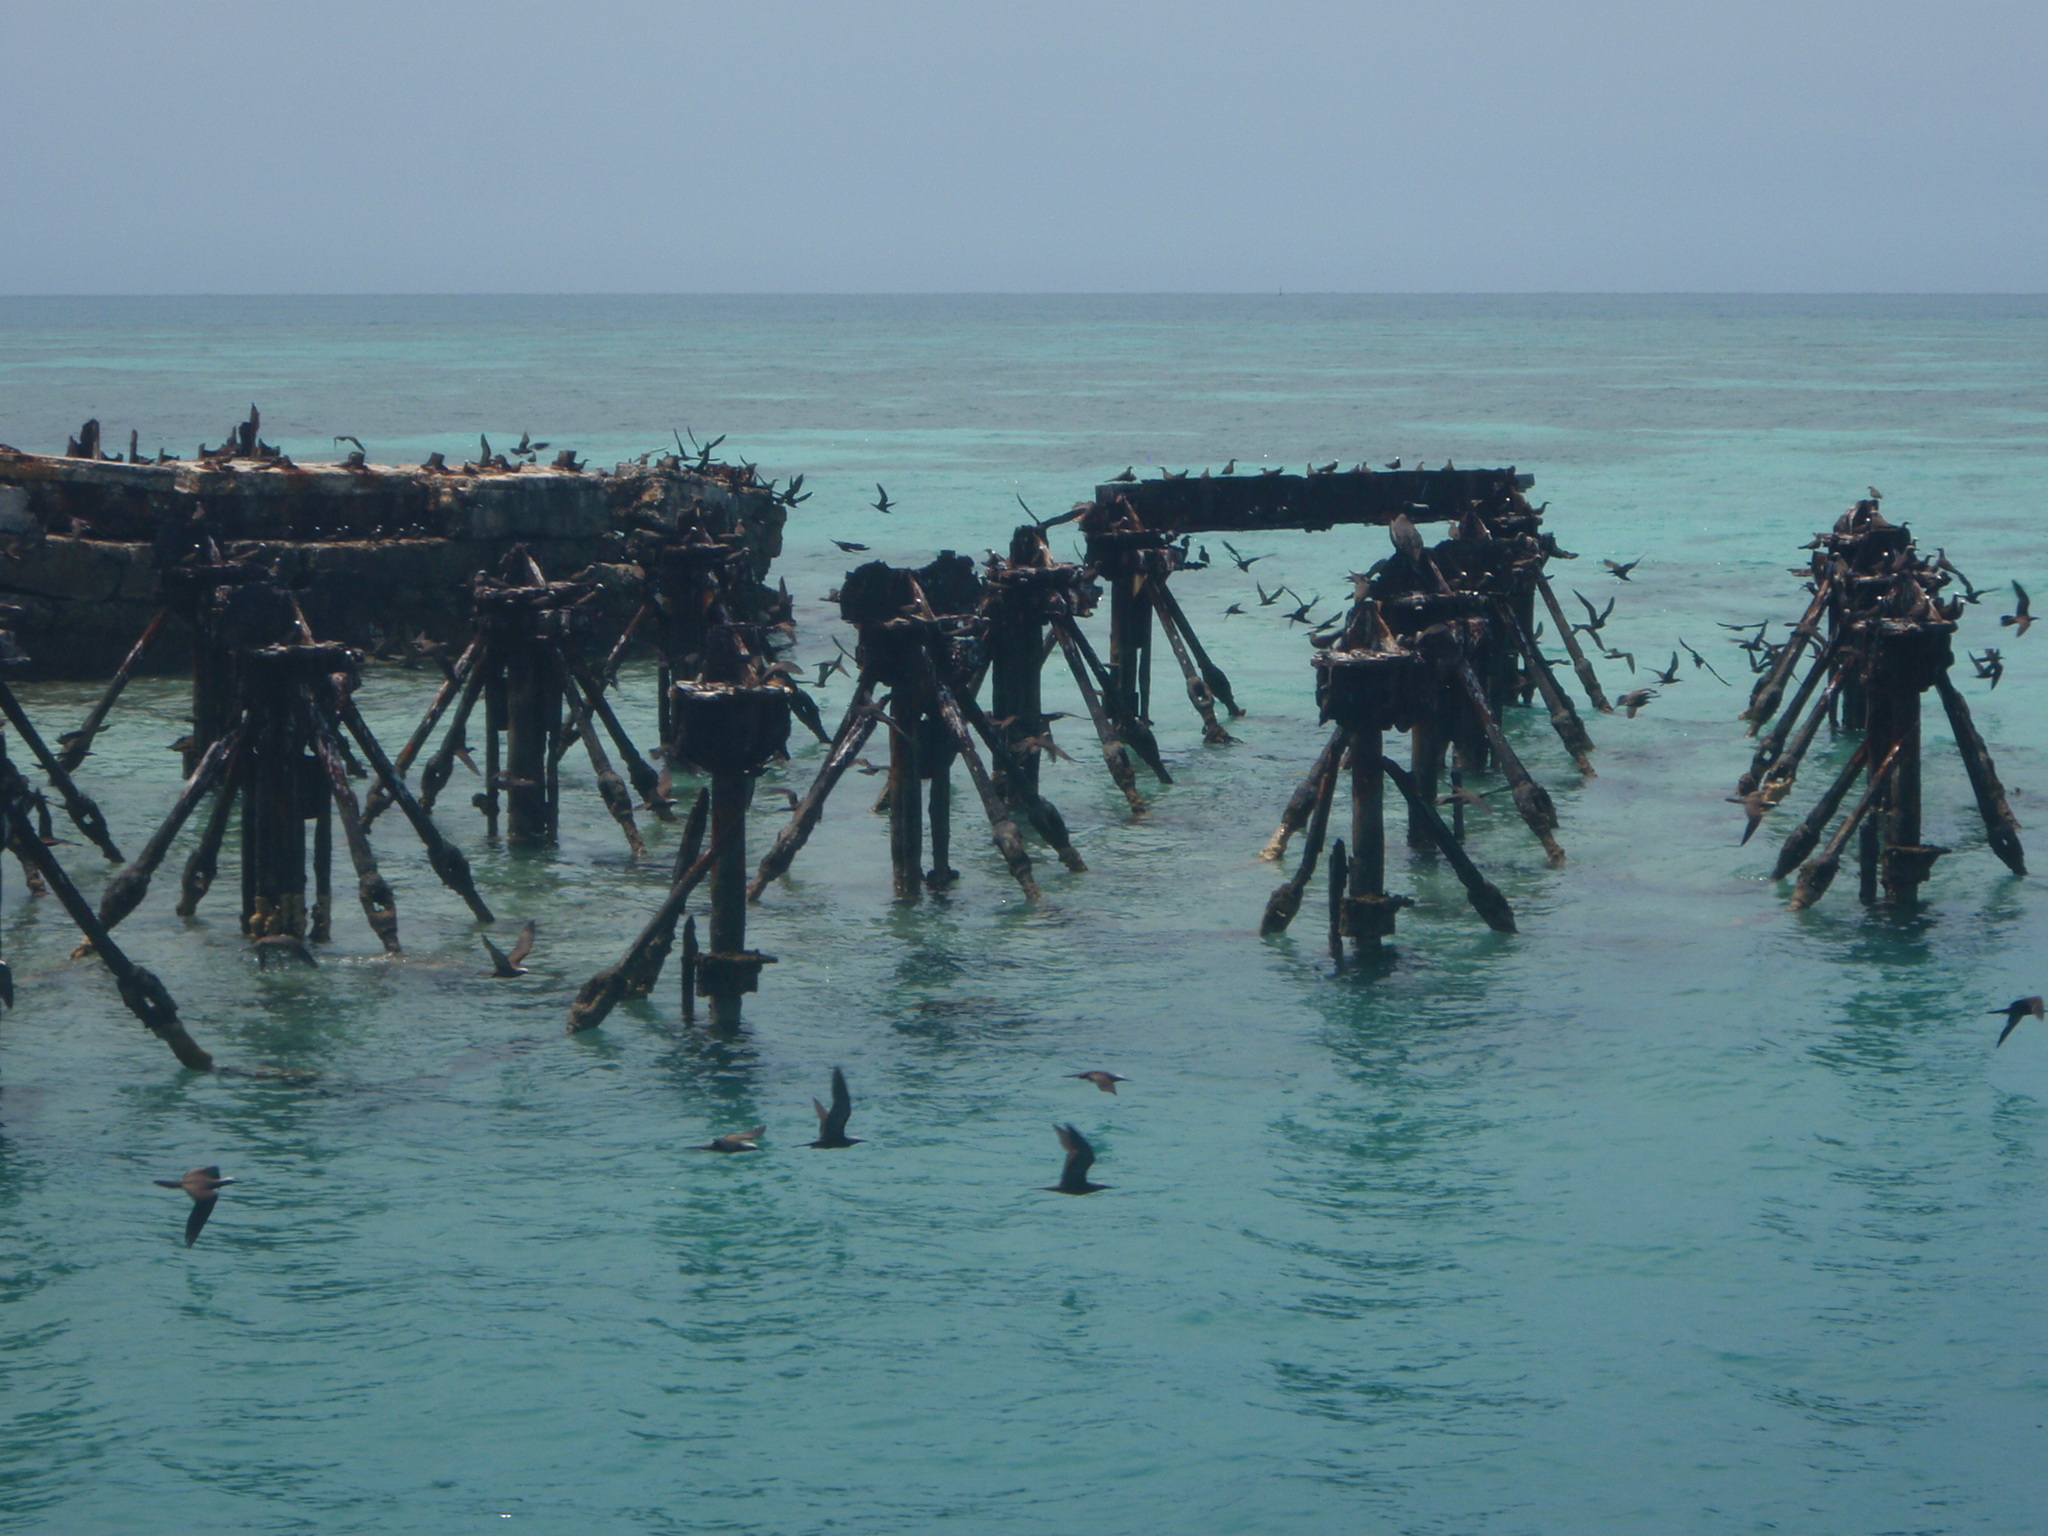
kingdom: Animalia
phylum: Chordata
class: Aves
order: Charadriiformes
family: Laridae
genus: Anous
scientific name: Anous stolidus
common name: Brown noddy
